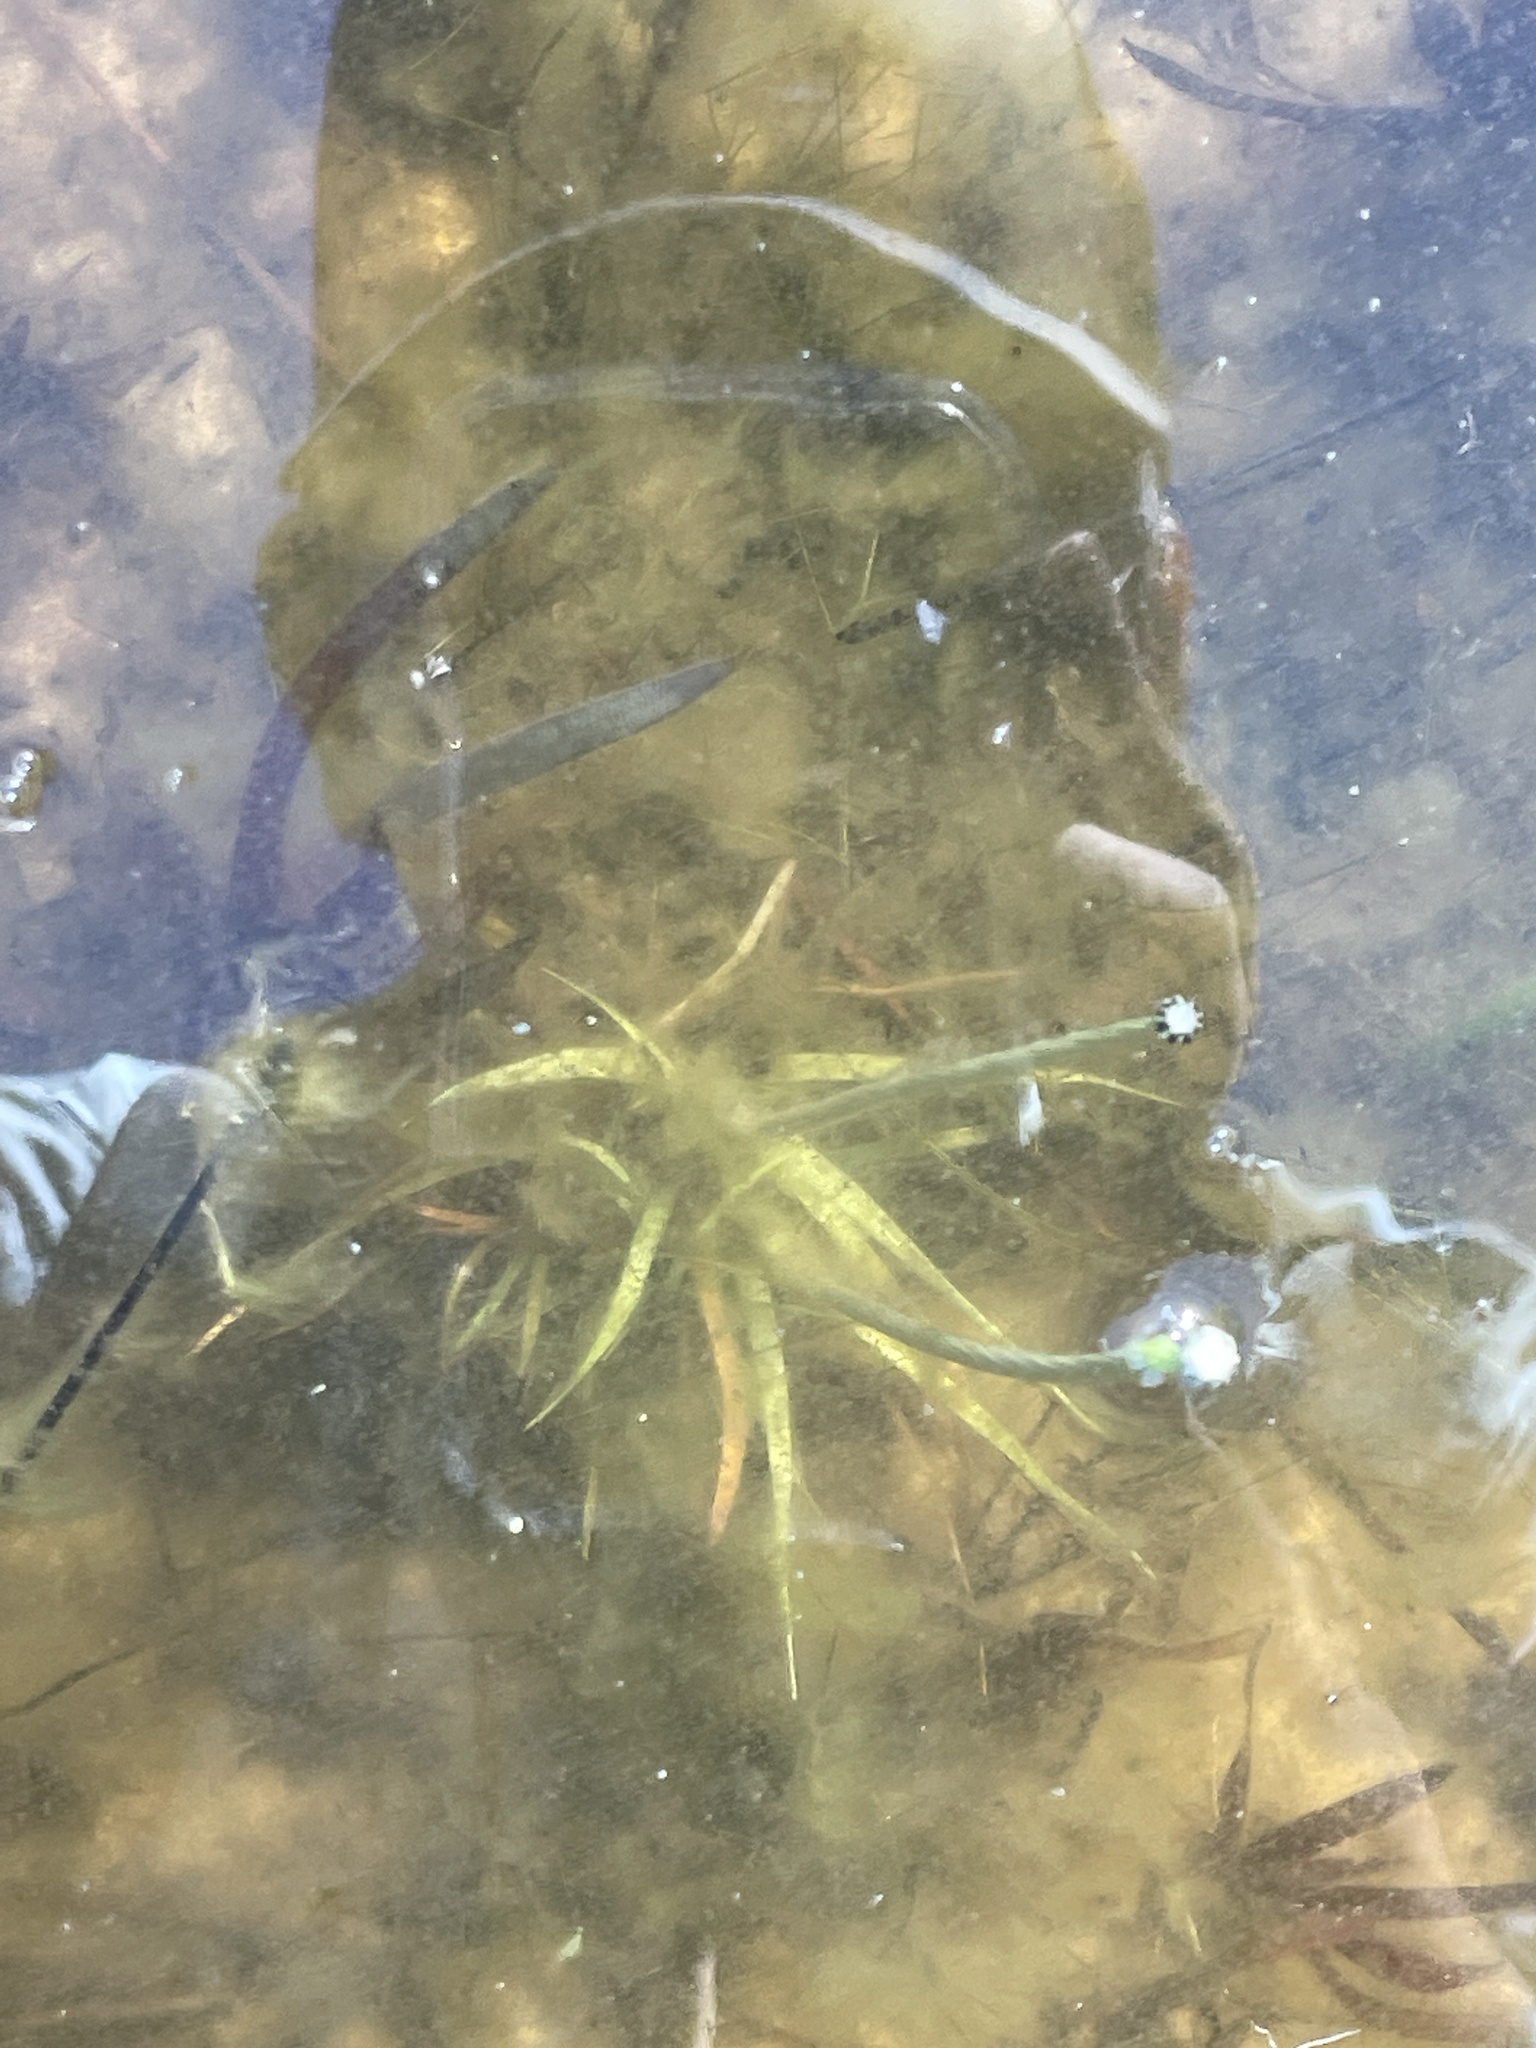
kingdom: Plantae
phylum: Tracheophyta
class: Liliopsida
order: Poales
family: Eriocaulaceae
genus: Eriocaulon
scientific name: Eriocaulon aquaticum
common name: Pipewort
